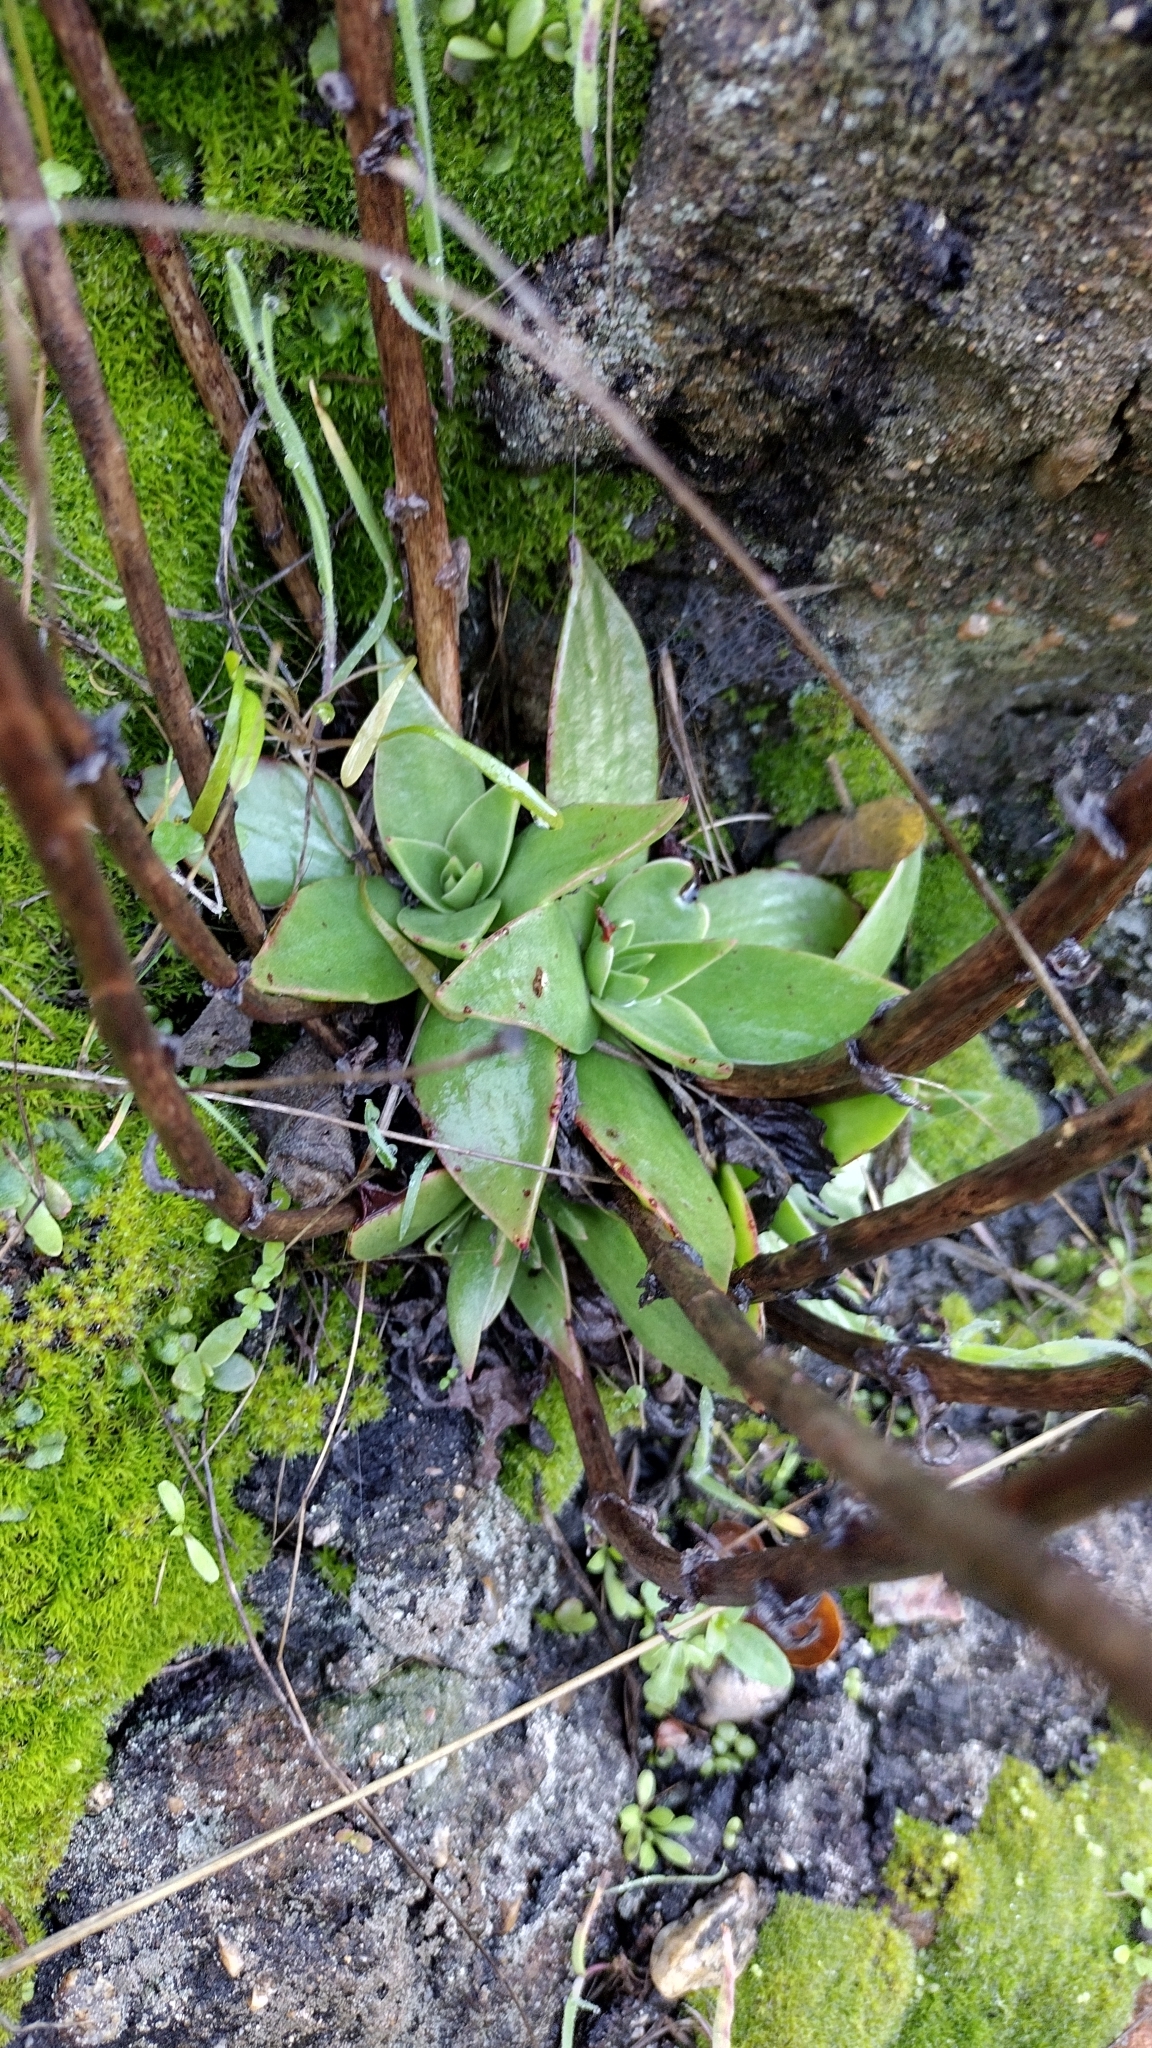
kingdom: Plantae
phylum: Tracheophyta
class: Magnoliopsida
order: Saxifragales
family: Crassulaceae
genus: Dudleya
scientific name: Dudleya cymosa
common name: Canyon dudleya
